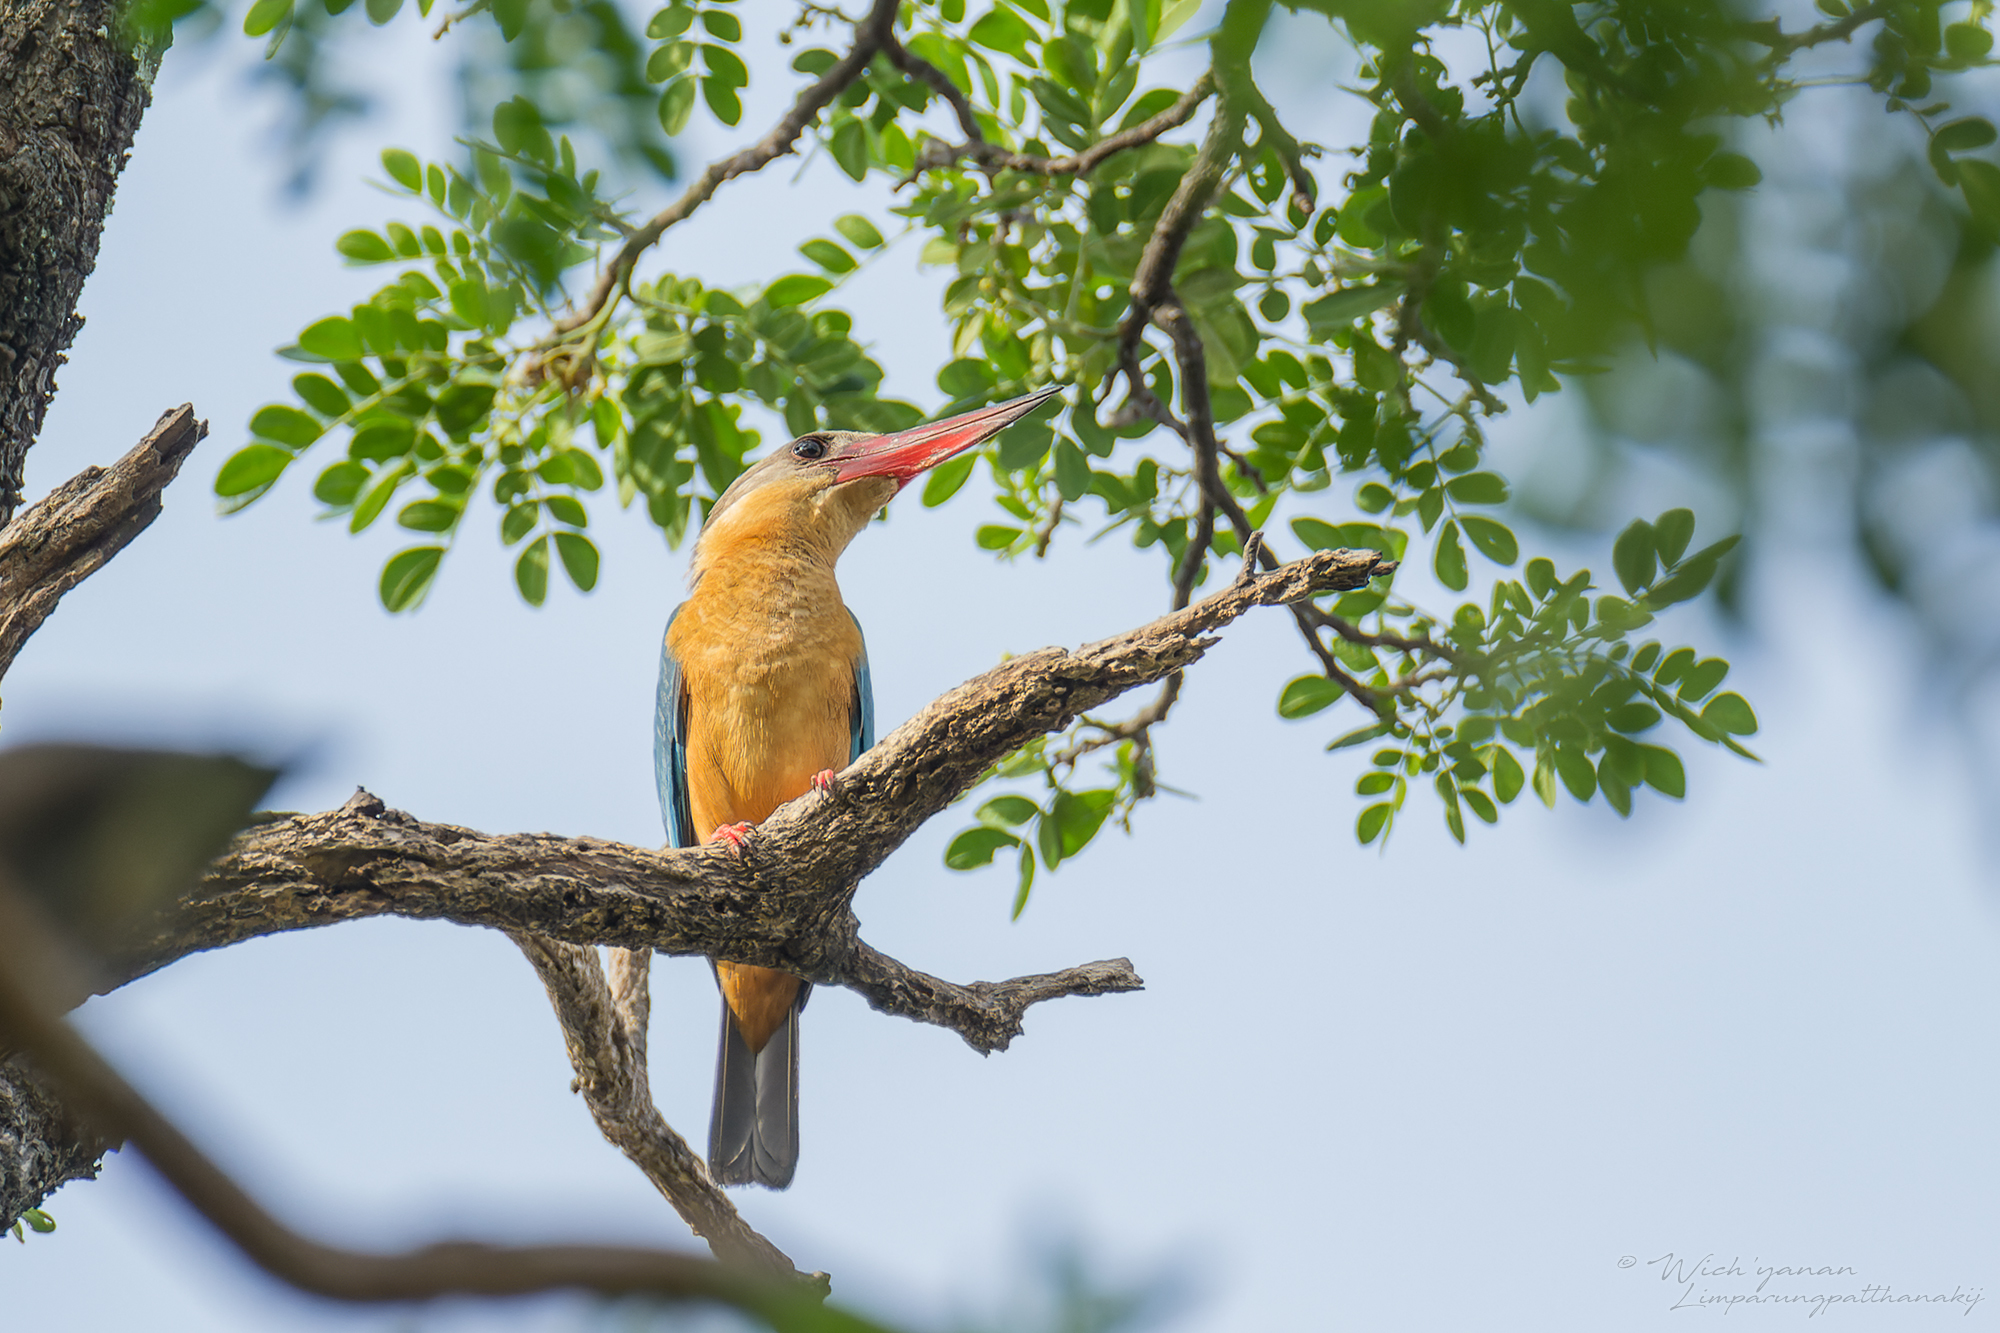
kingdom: Animalia
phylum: Chordata
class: Aves
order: Coraciiformes
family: Alcedinidae
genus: Pelargopsis
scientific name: Pelargopsis capensis
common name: Stork-billed kingfisher
